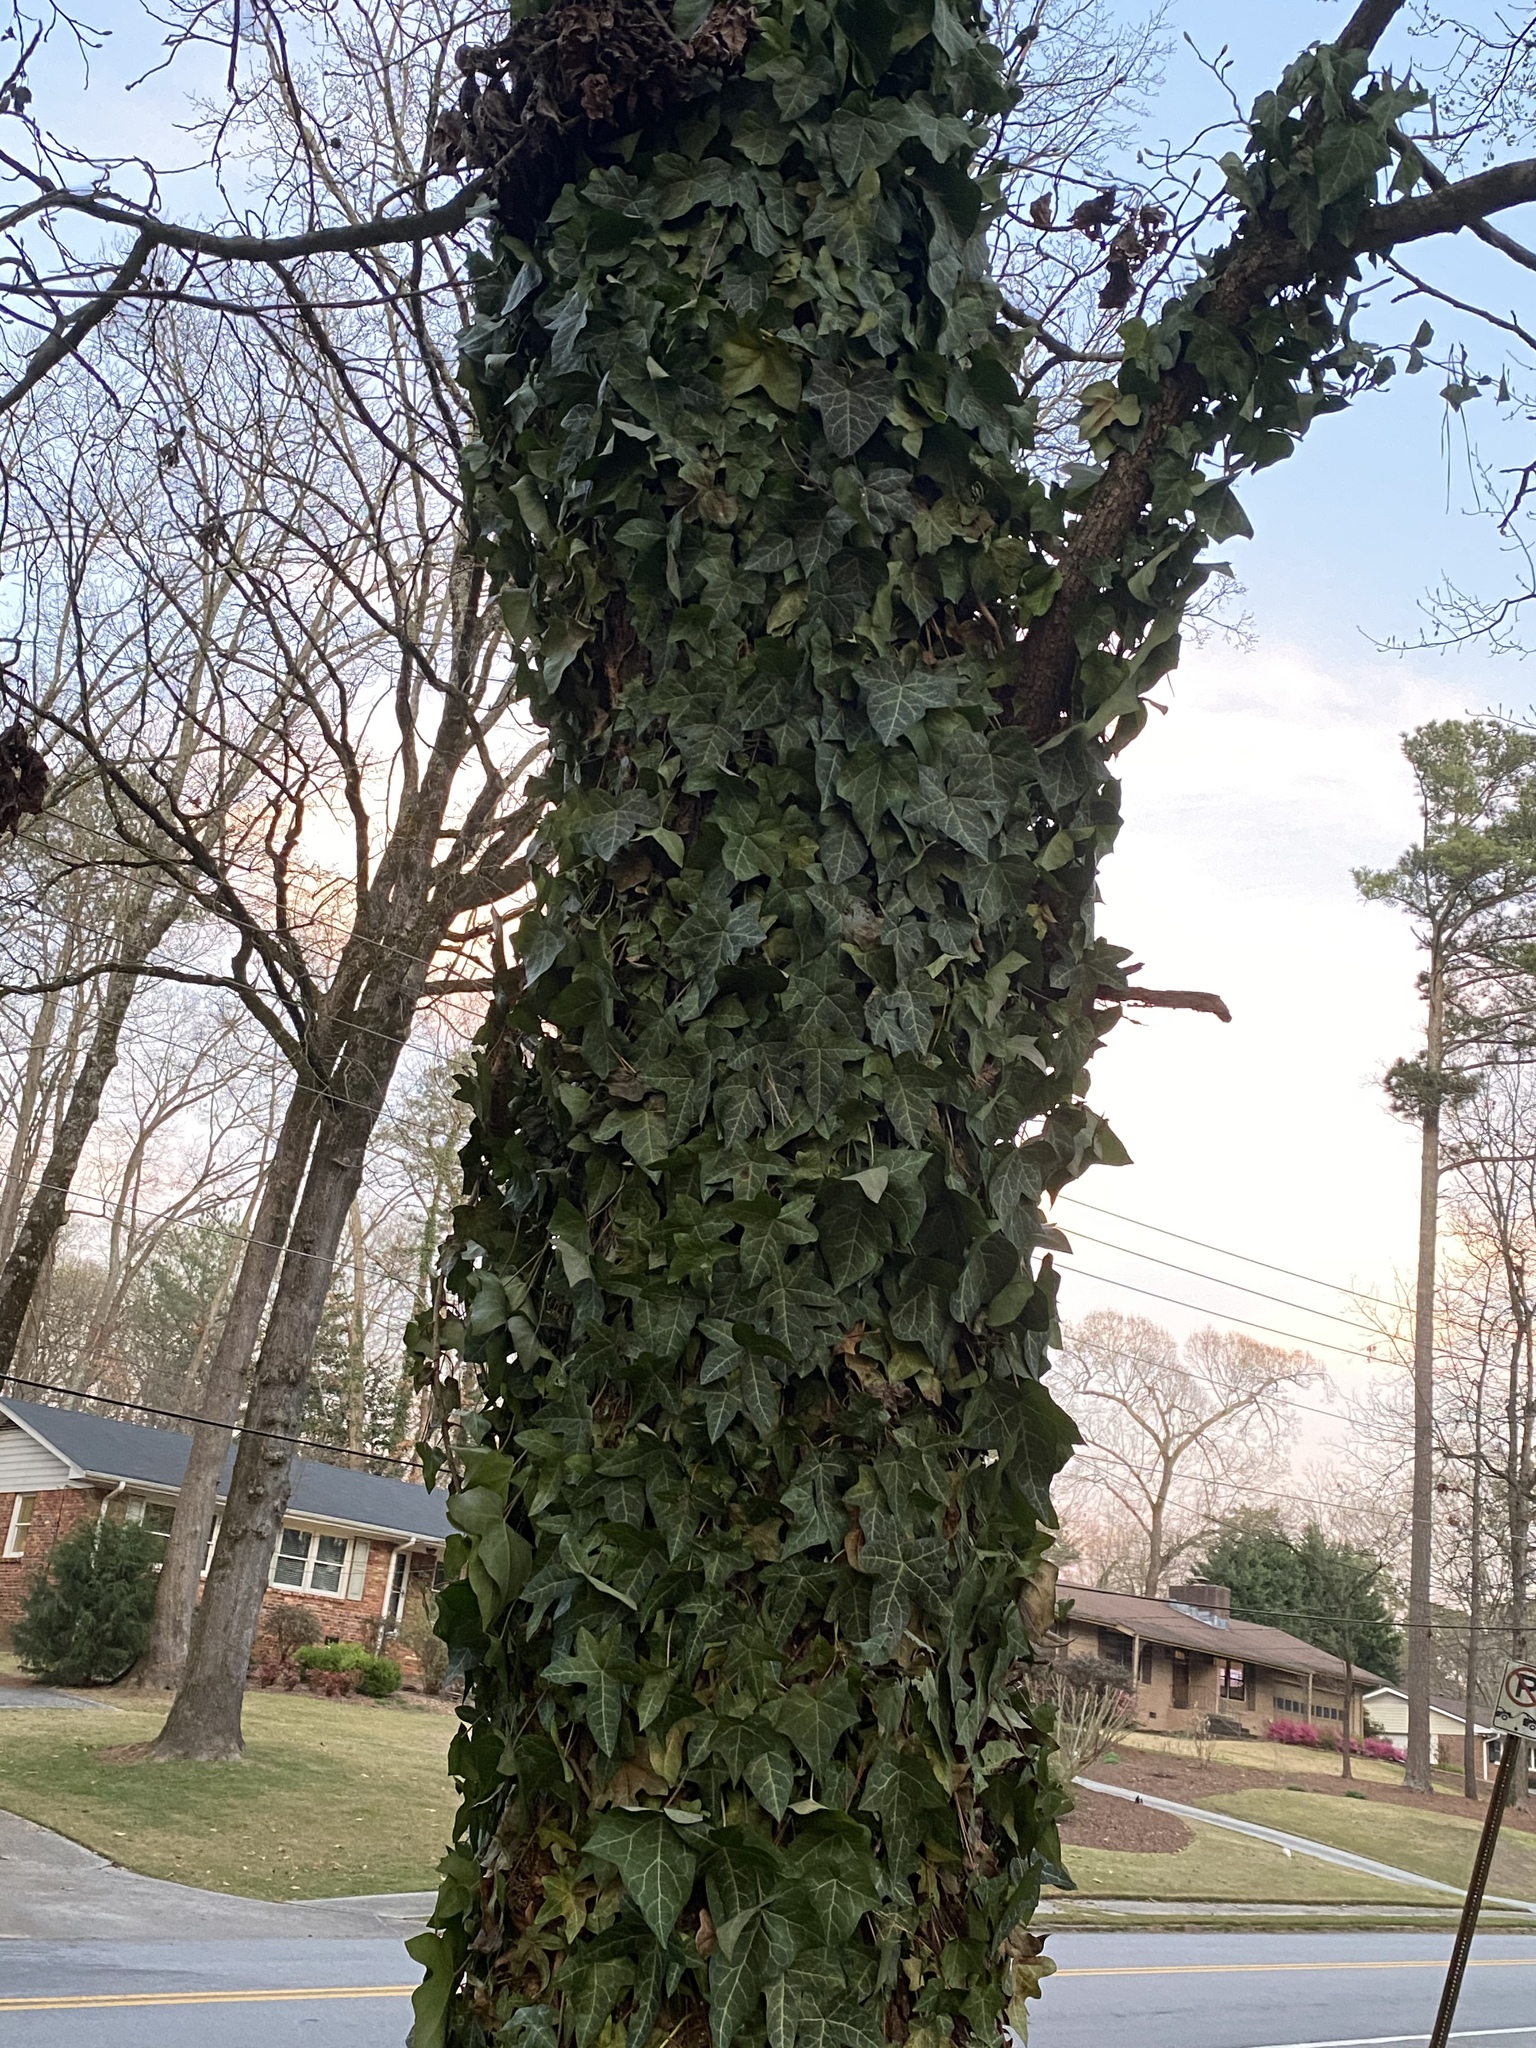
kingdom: Plantae
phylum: Tracheophyta
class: Magnoliopsida
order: Apiales
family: Araliaceae
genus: Hedera
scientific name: Hedera helix
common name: Ivy
